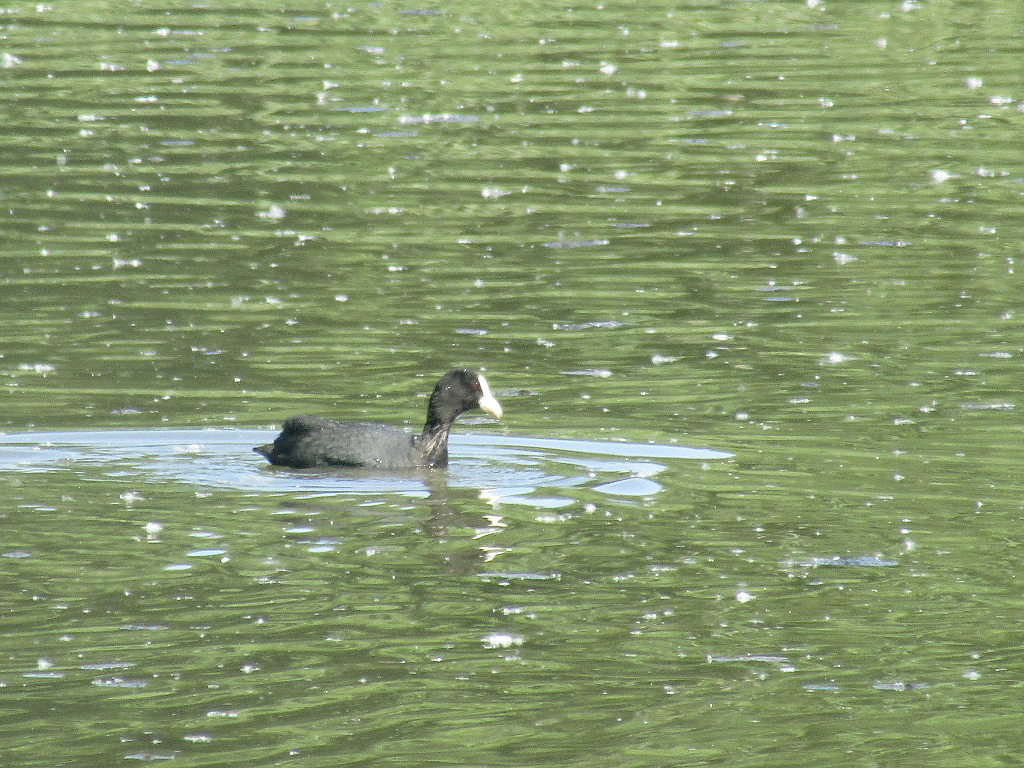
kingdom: Animalia
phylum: Chordata
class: Aves
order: Gruiformes
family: Rallidae
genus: Fulica
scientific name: Fulica atra
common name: Eurasian coot
